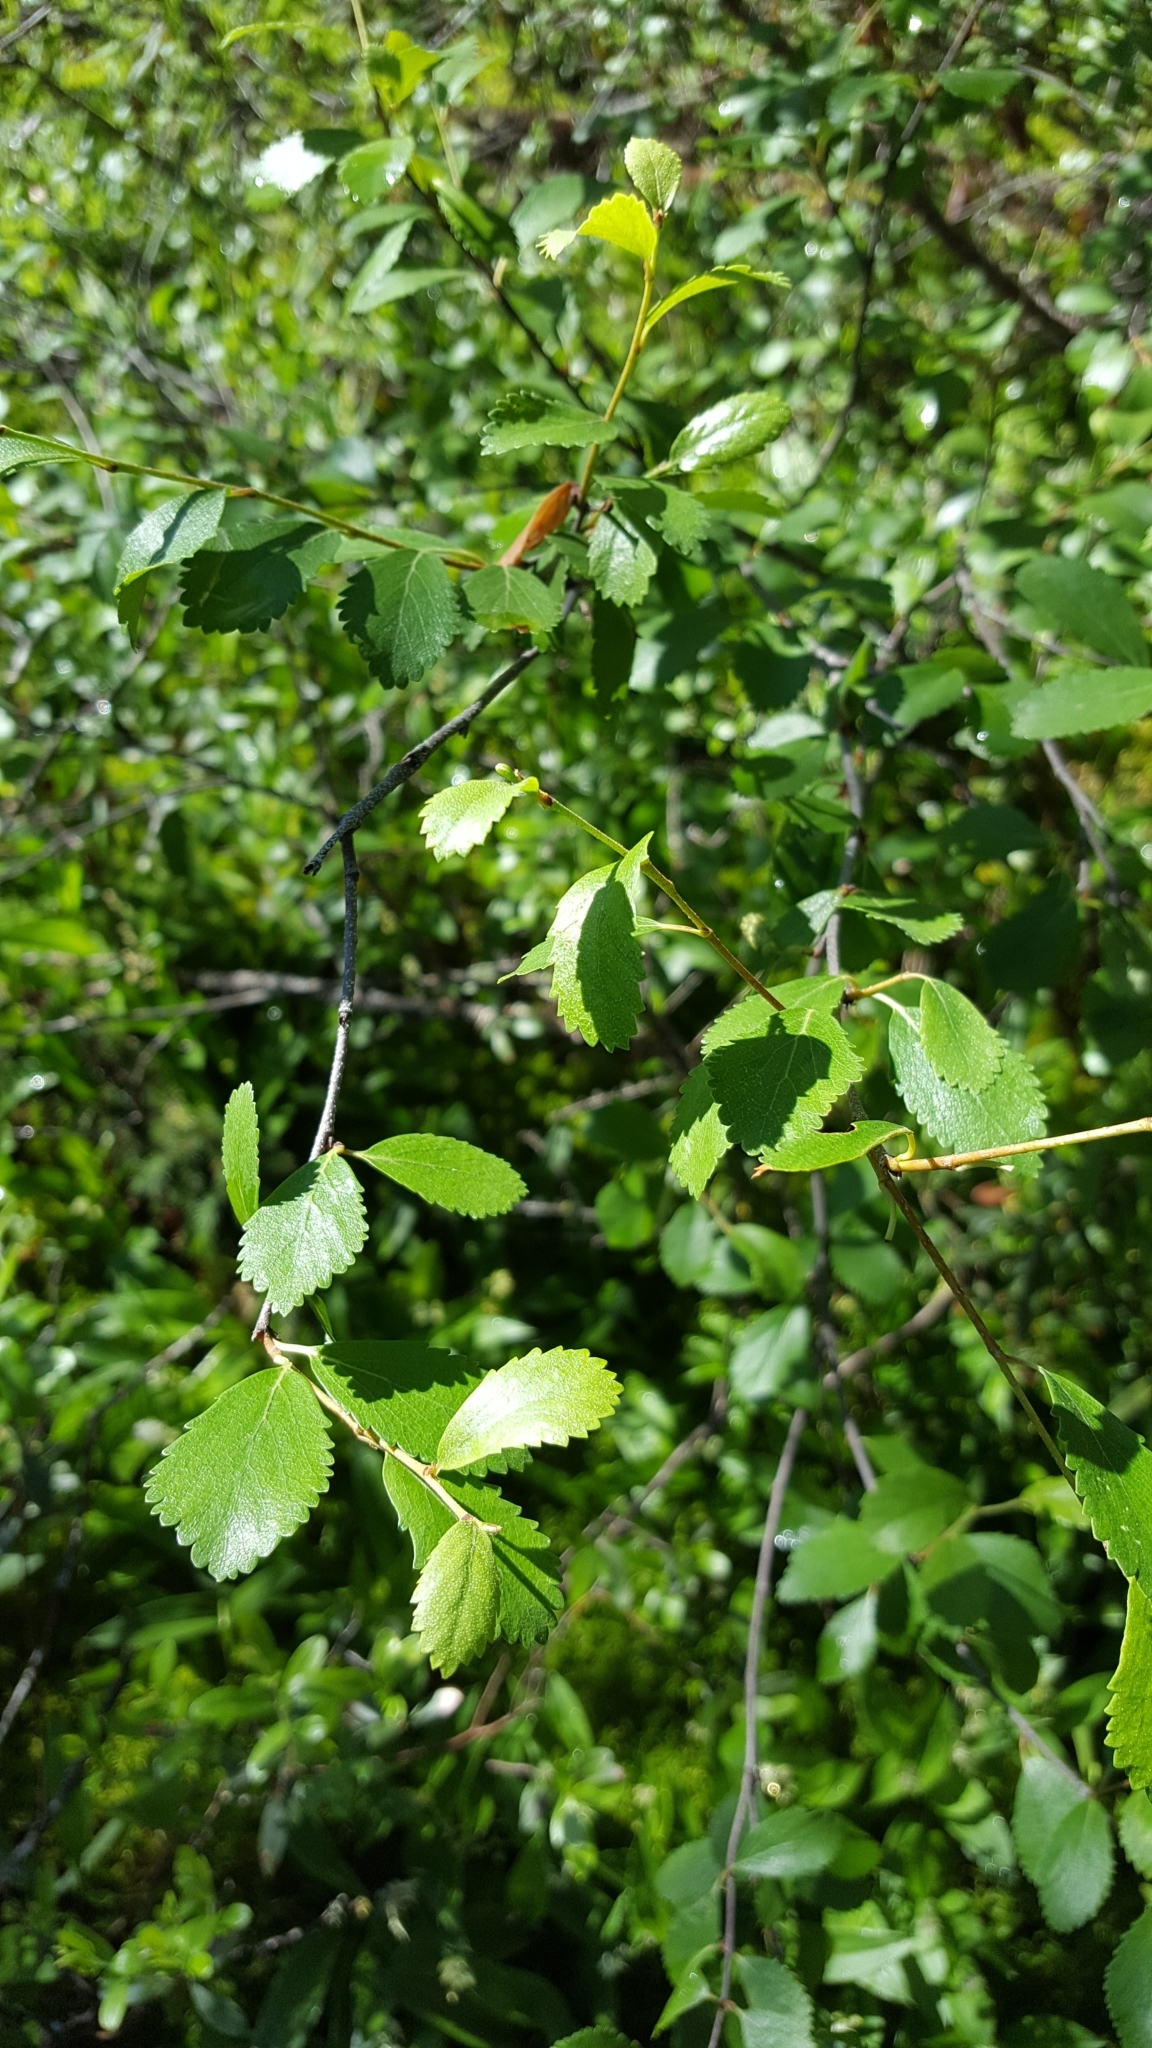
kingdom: Plantae
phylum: Tracheophyta
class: Magnoliopsida
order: Fagales
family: Betulaceae
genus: Betula
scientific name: Betula pumila
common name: Bog birch
